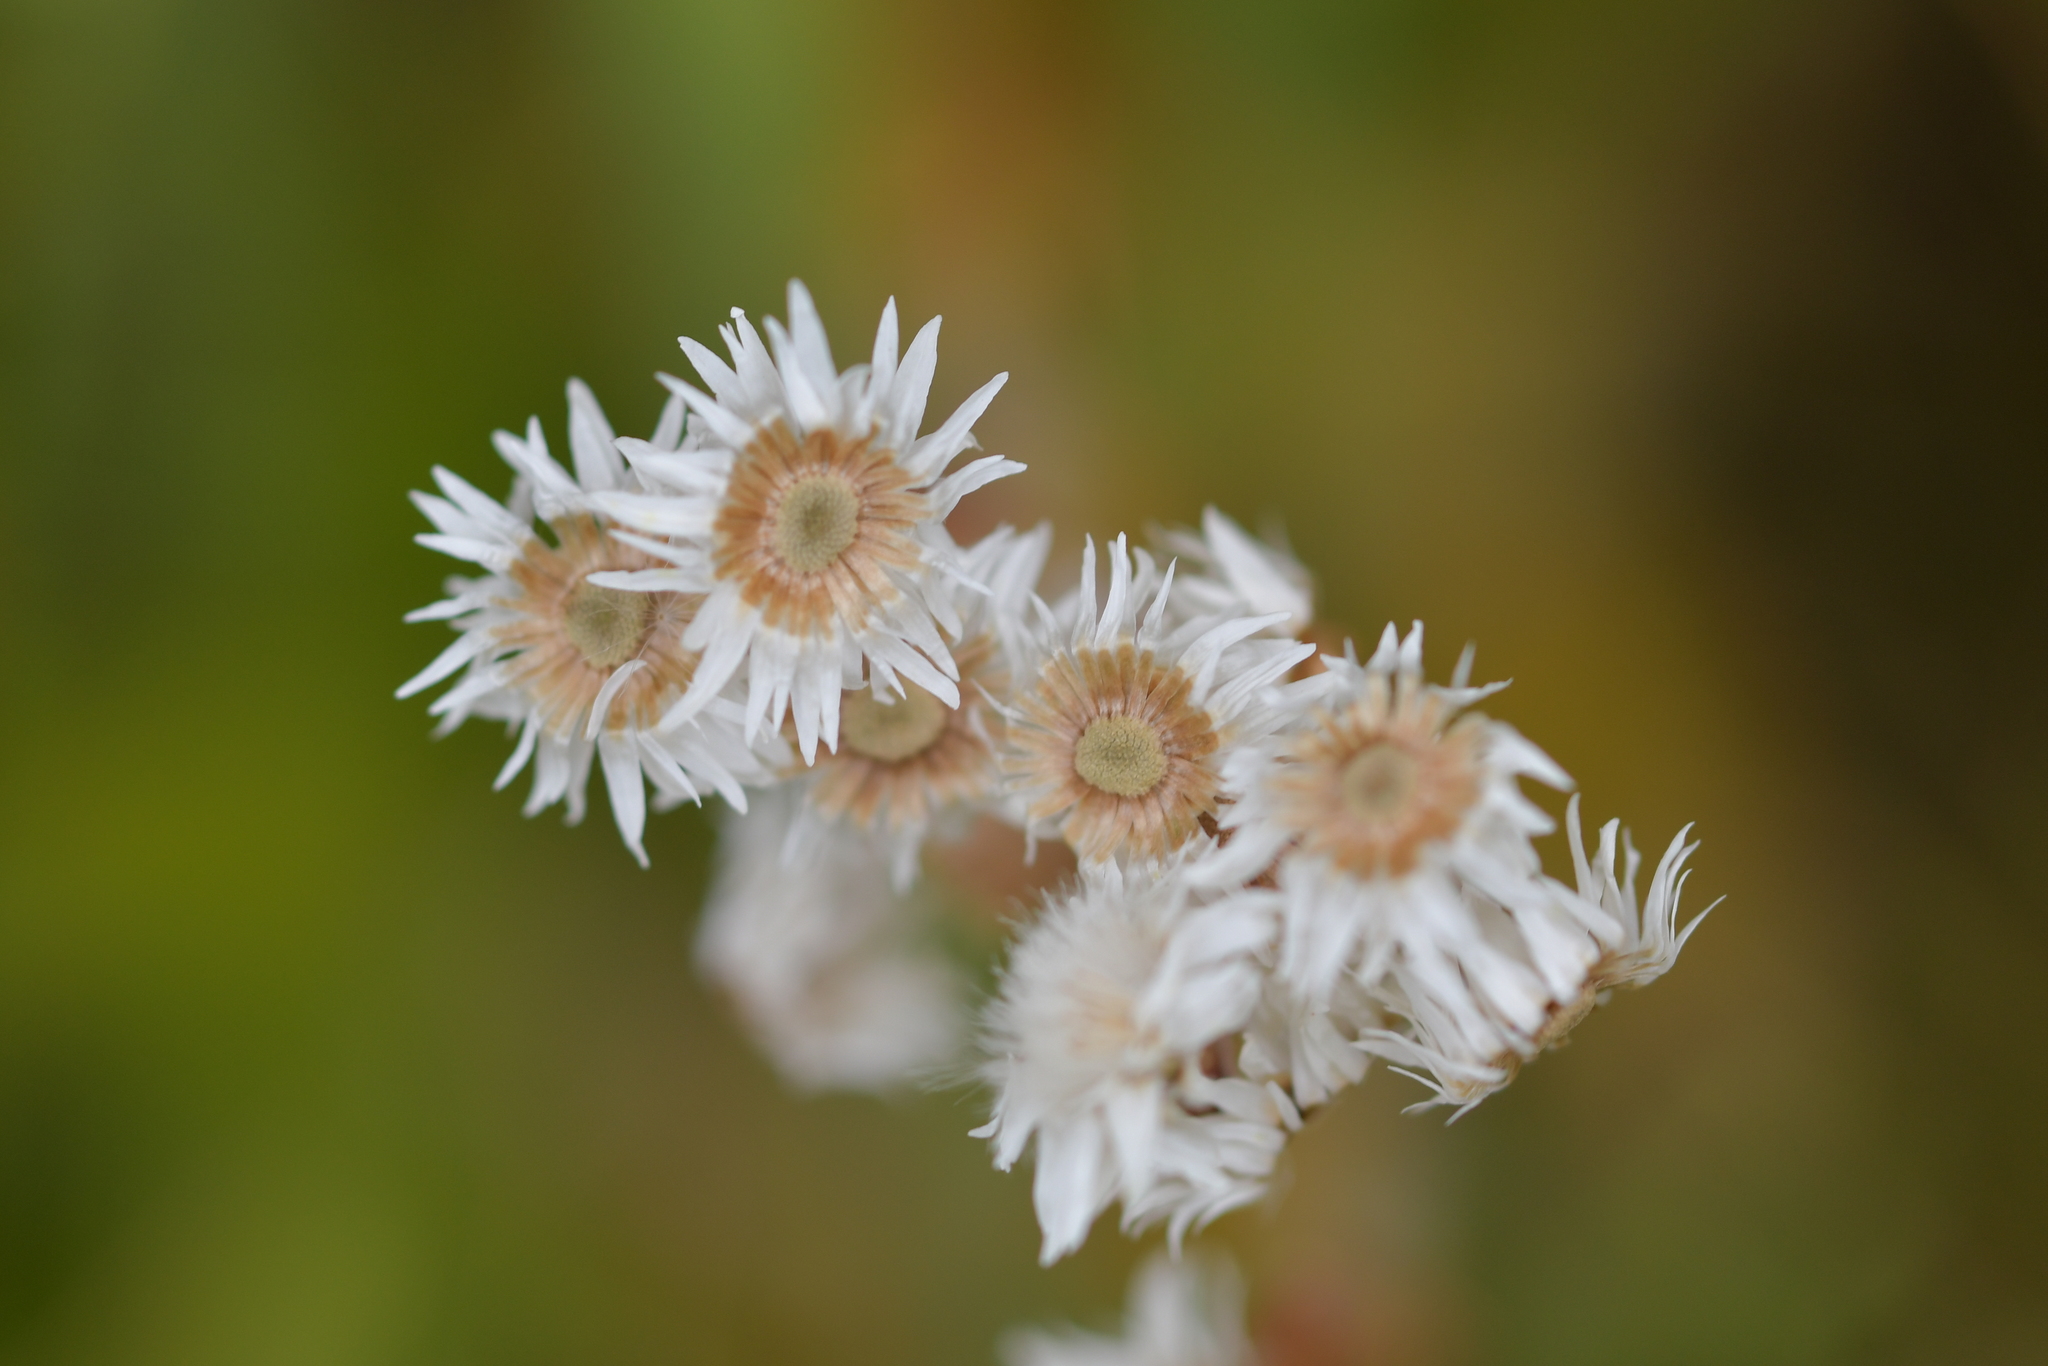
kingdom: Plantae
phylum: Tracheophyta
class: Magnoliopsida
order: Asterales
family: Asteraceae
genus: Anaphalioides
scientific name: Anaphalioides trinervis
